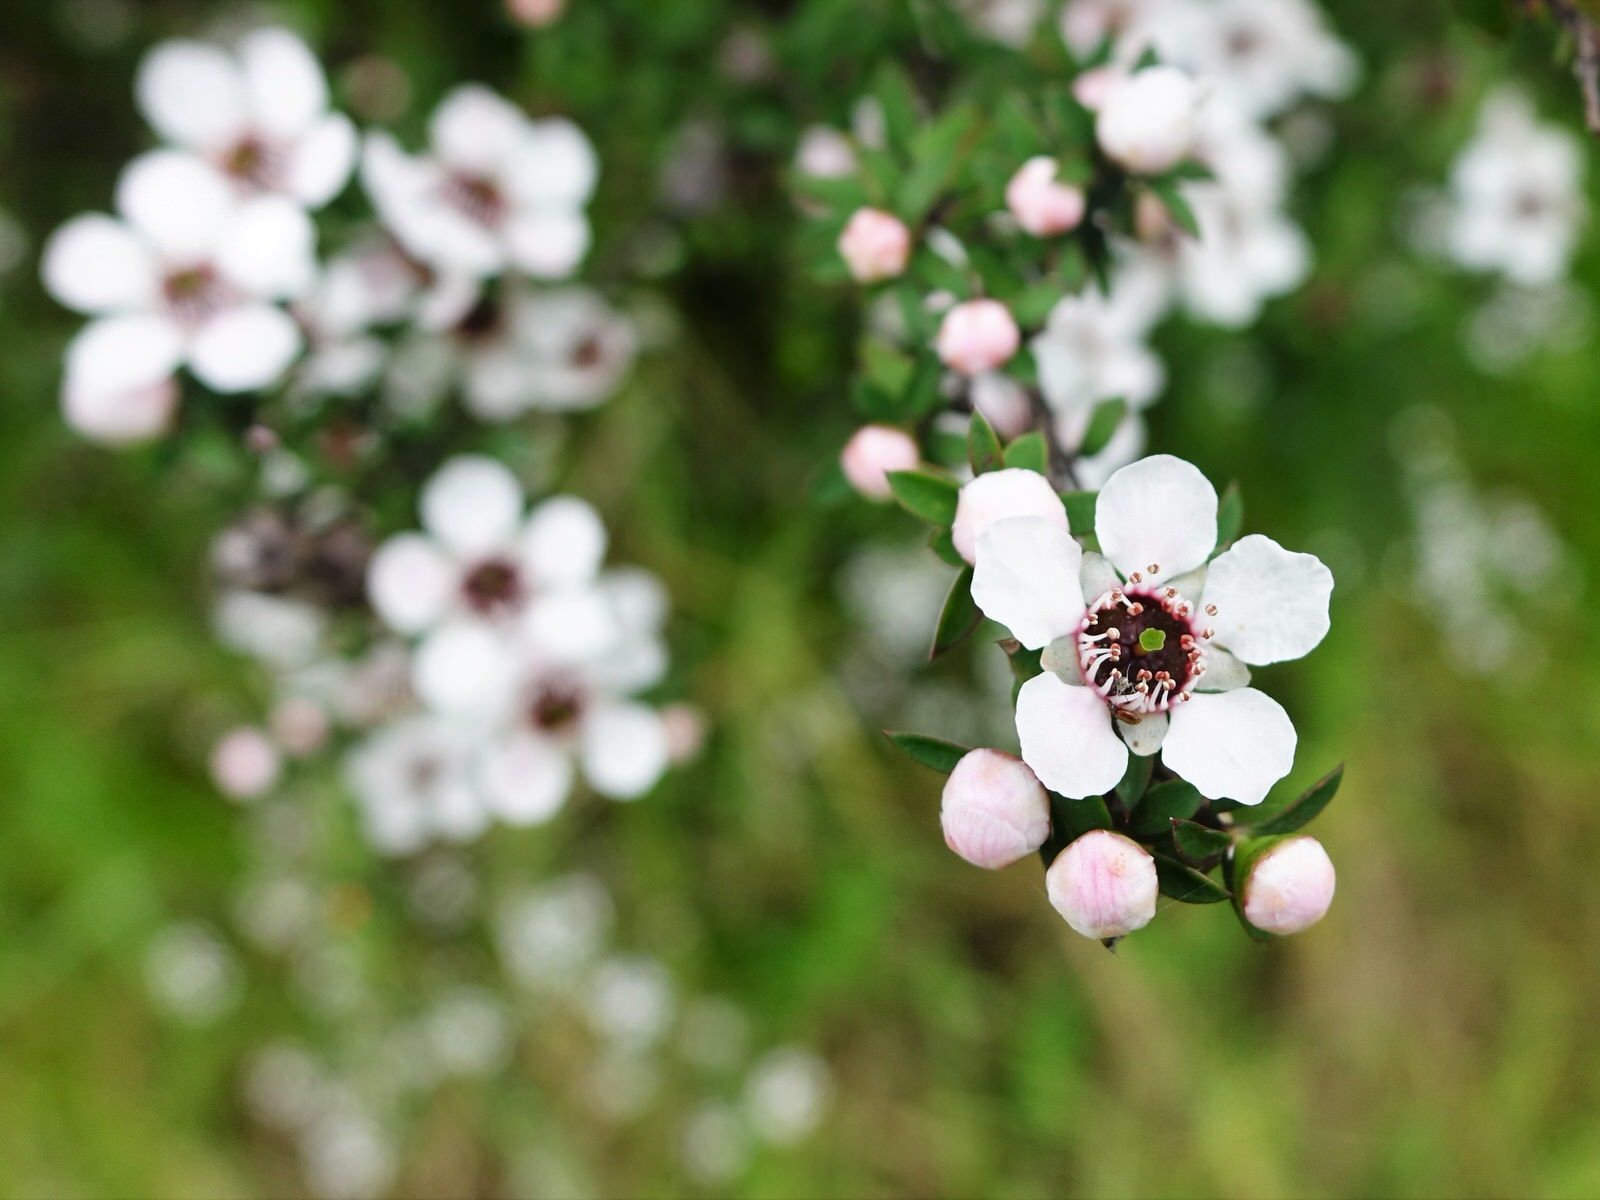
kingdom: Plantae
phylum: Tracheophyta
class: Magnoliopsida
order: Myrtales
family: Myrtaceae
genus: Leptospermum
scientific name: Leptospermum scoparium
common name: Broom tea-tree
